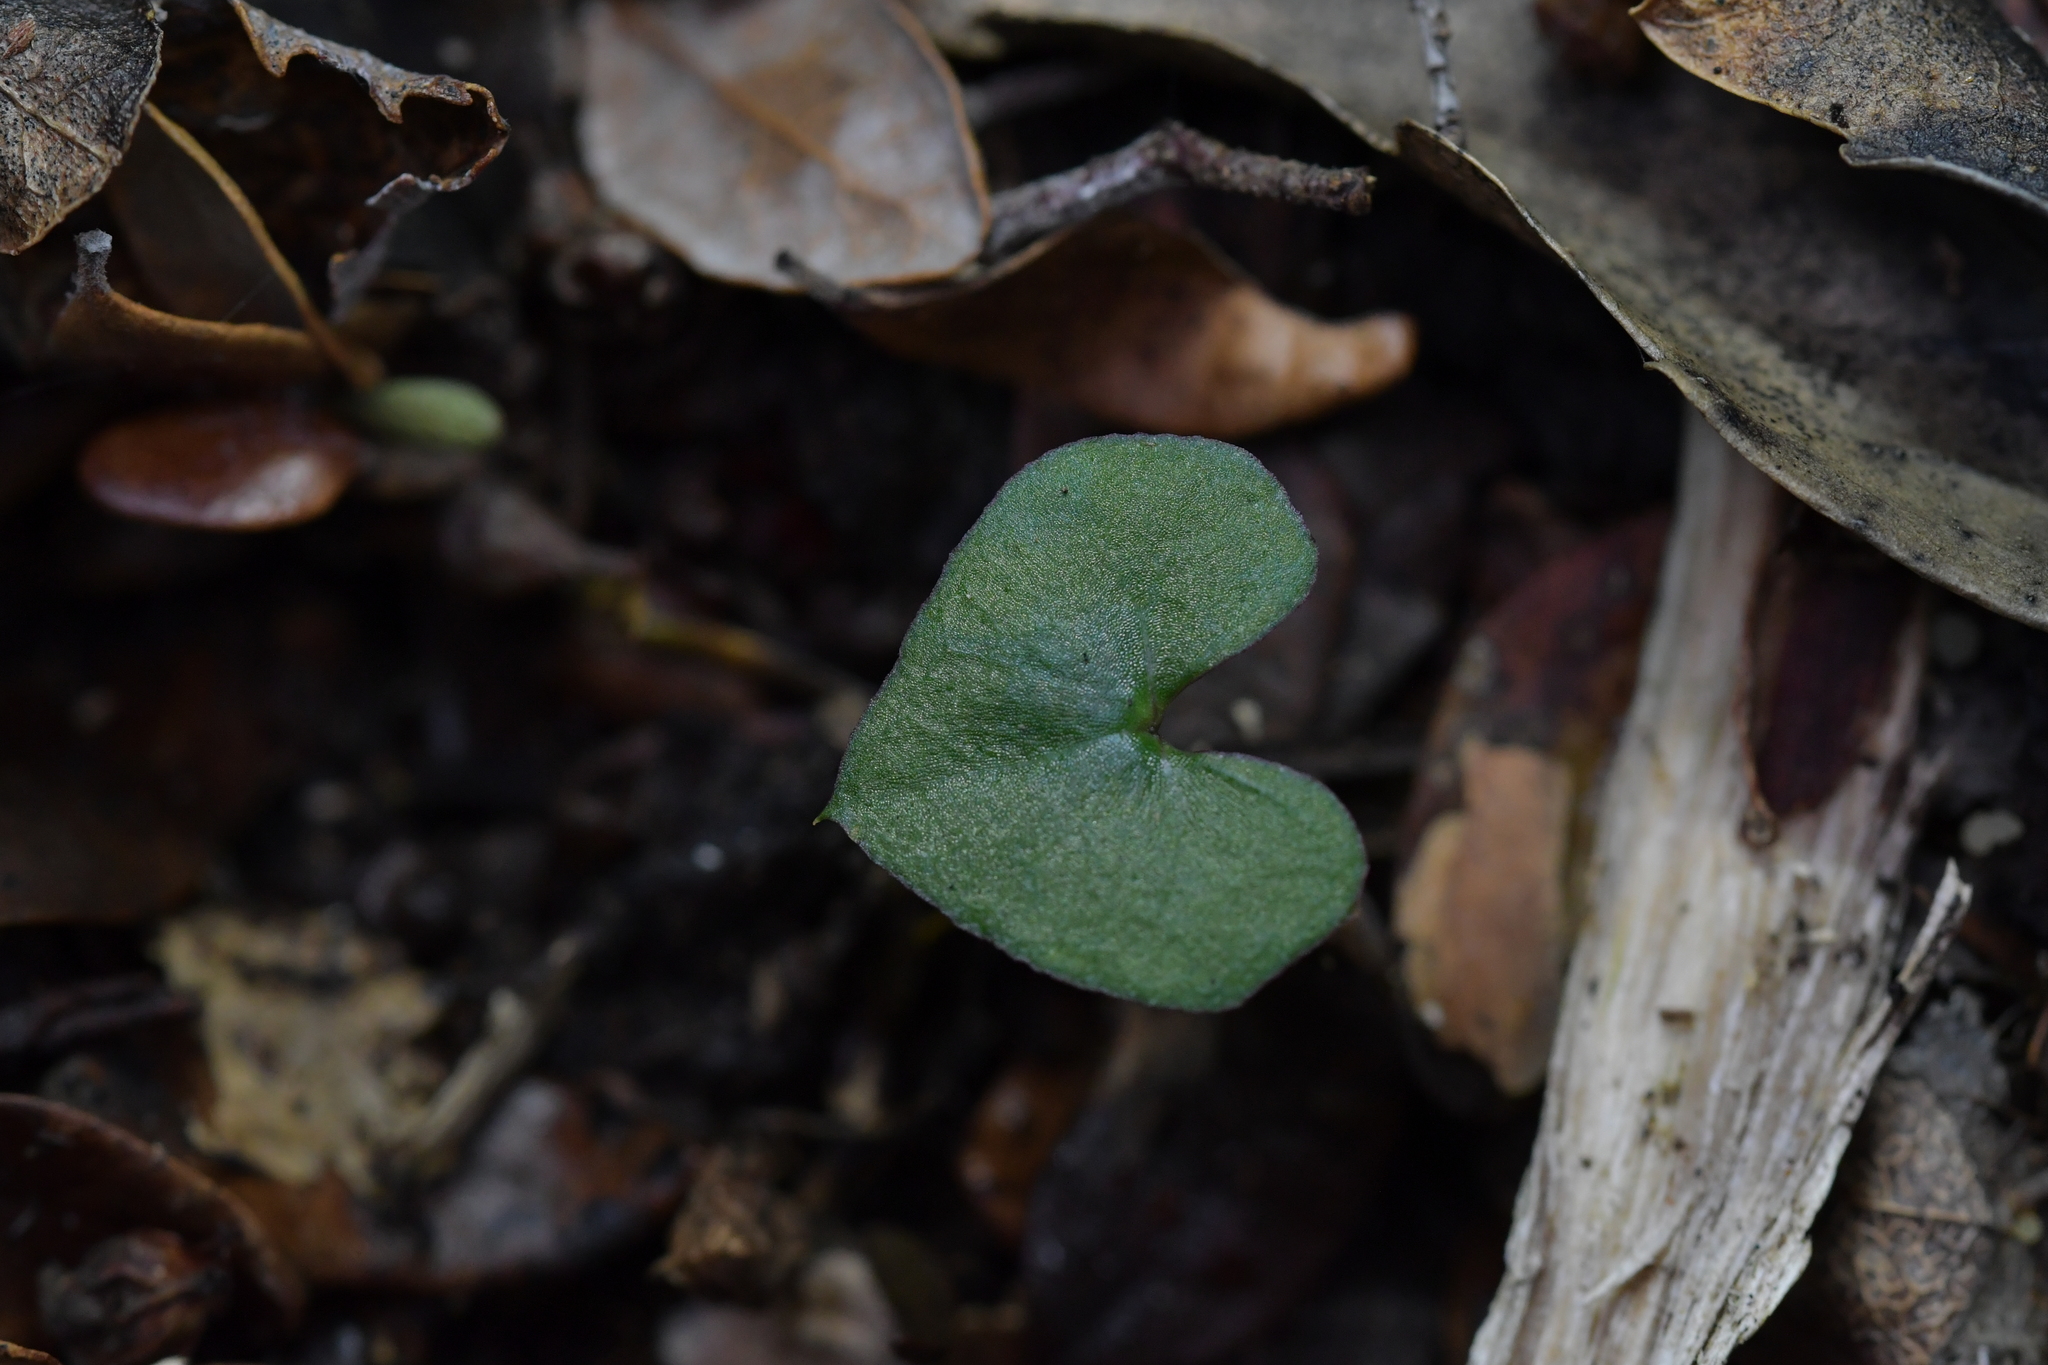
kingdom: Plantae
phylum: Tracheophyta
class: Liliopsida
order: Asparagales
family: Orchidaceae
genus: Acianthus
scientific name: Acianthus sinclairii
